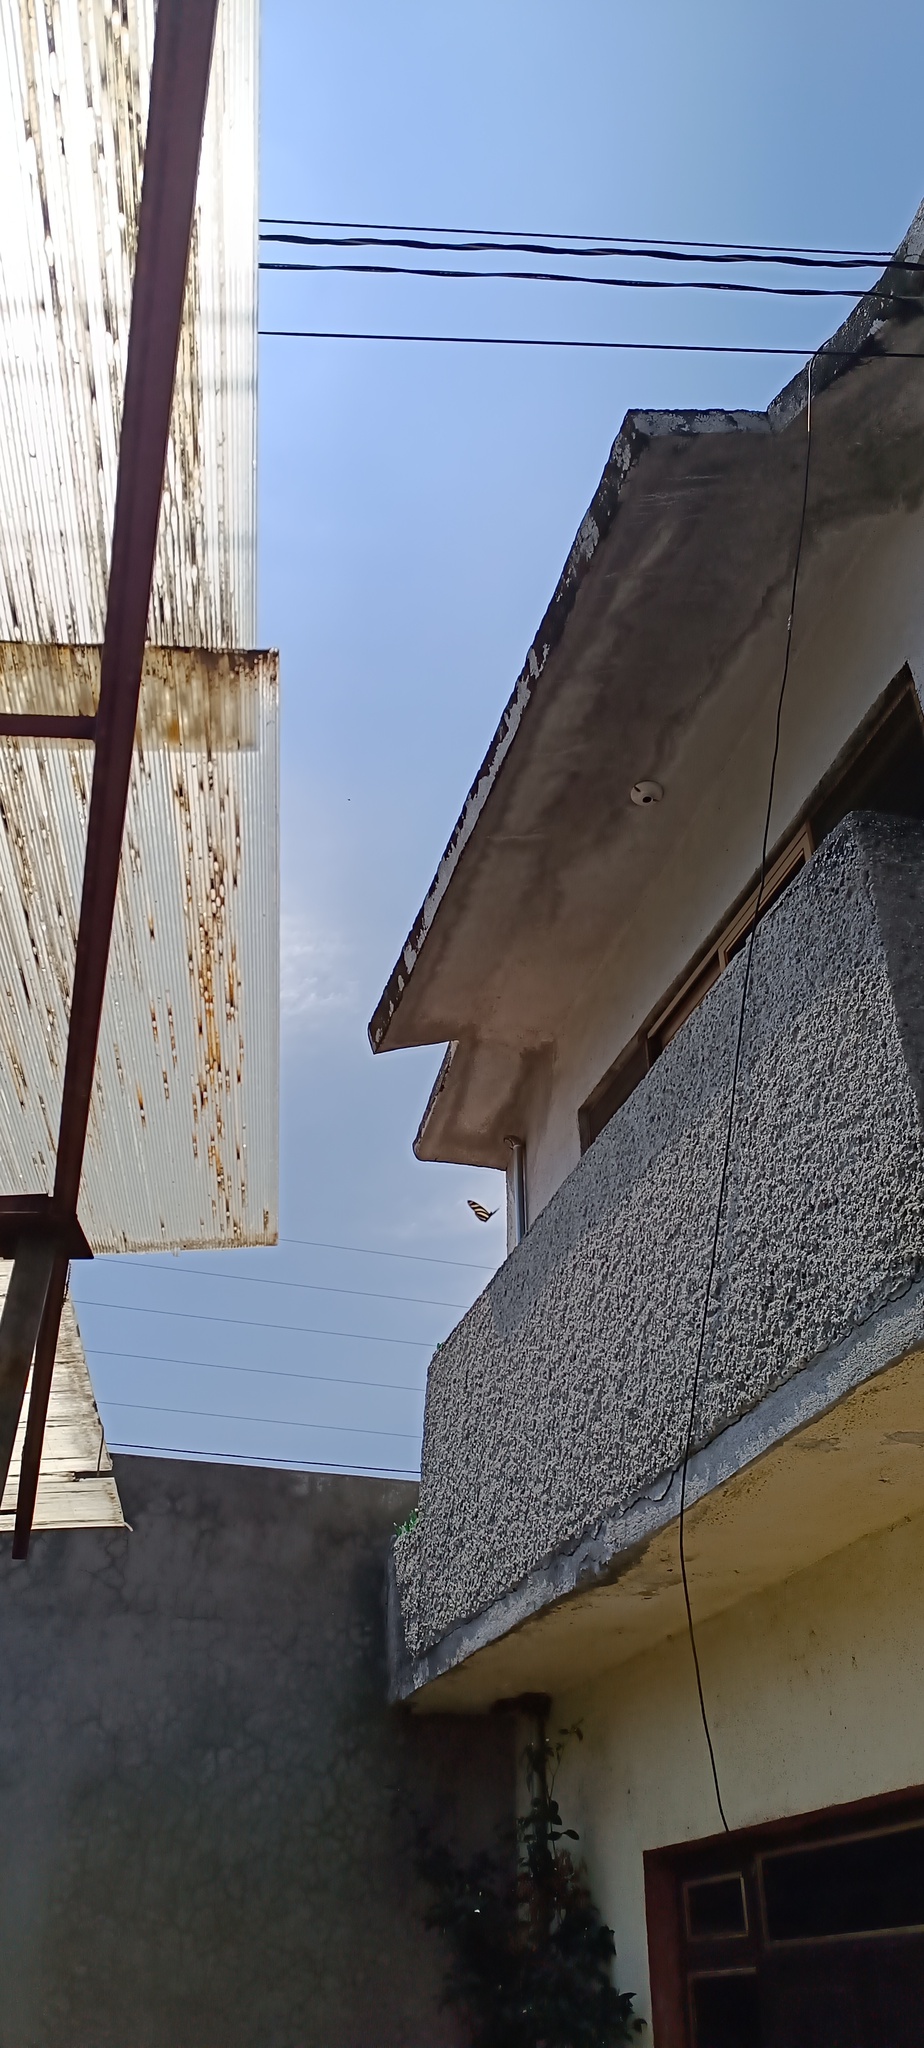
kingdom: Animalia
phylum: Arthropoda
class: Insecta
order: Lepidoptera
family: Nymphalidae
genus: Heliconius
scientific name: Heliconius charithonia
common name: Zebra long wing
